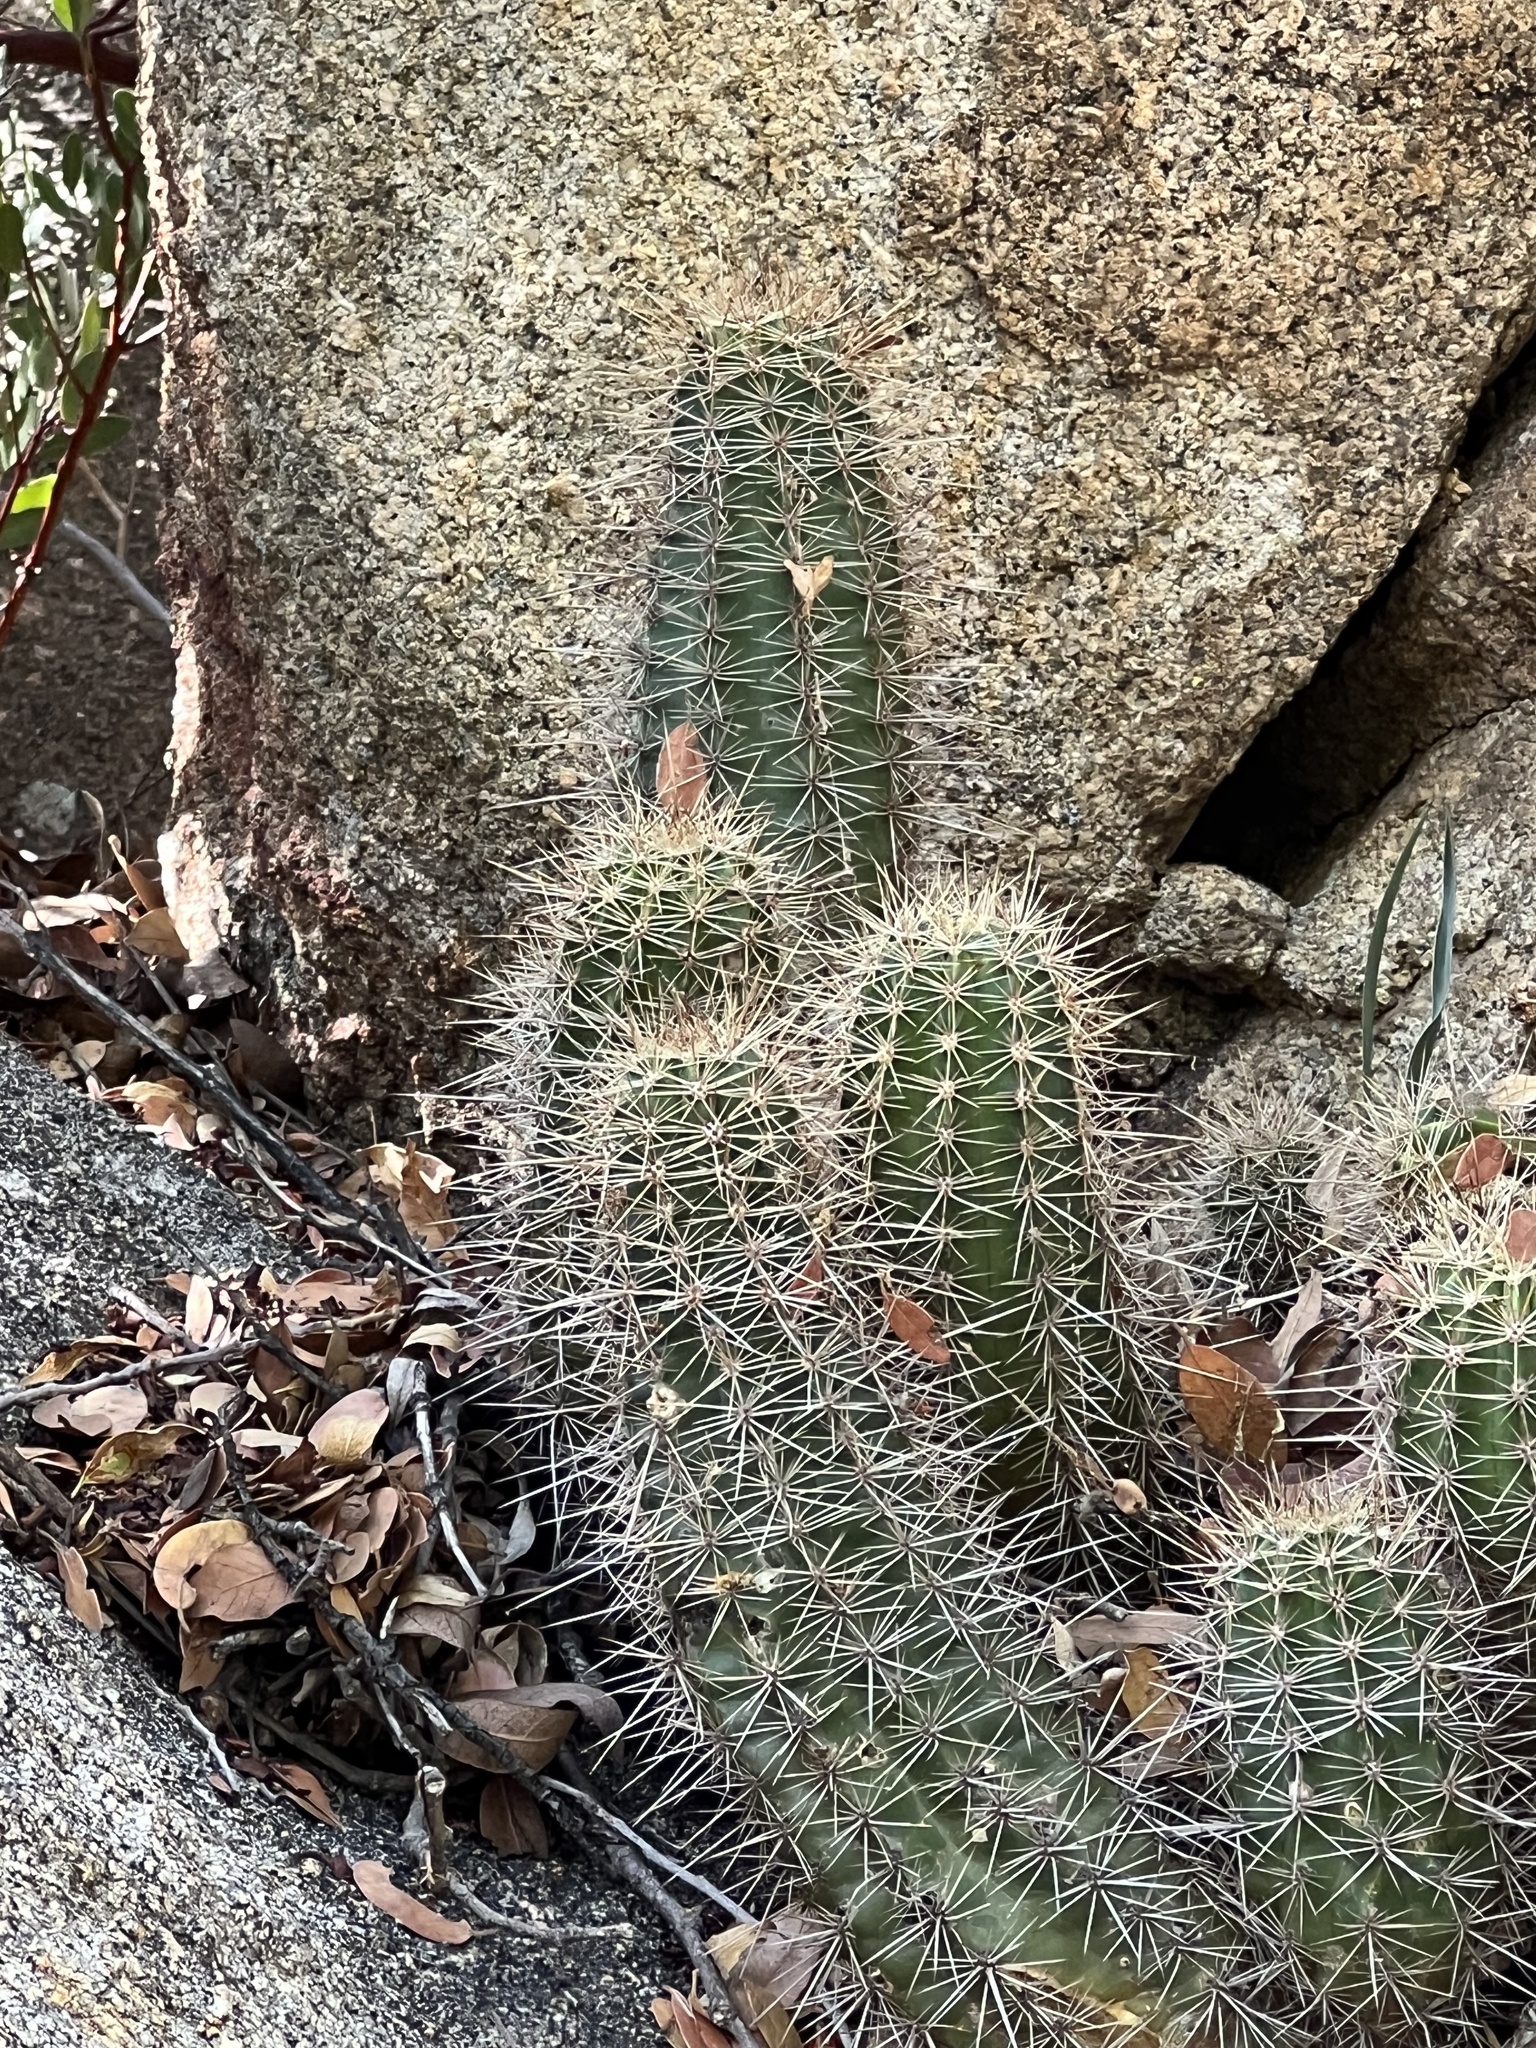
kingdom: Plantae
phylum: Tracheophyta
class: Magnoliopsida
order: Caryophyllales
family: Cactaceae
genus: Echinocereus
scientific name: Echinocereus coccineus
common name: Scarlet hedgehog cactus
